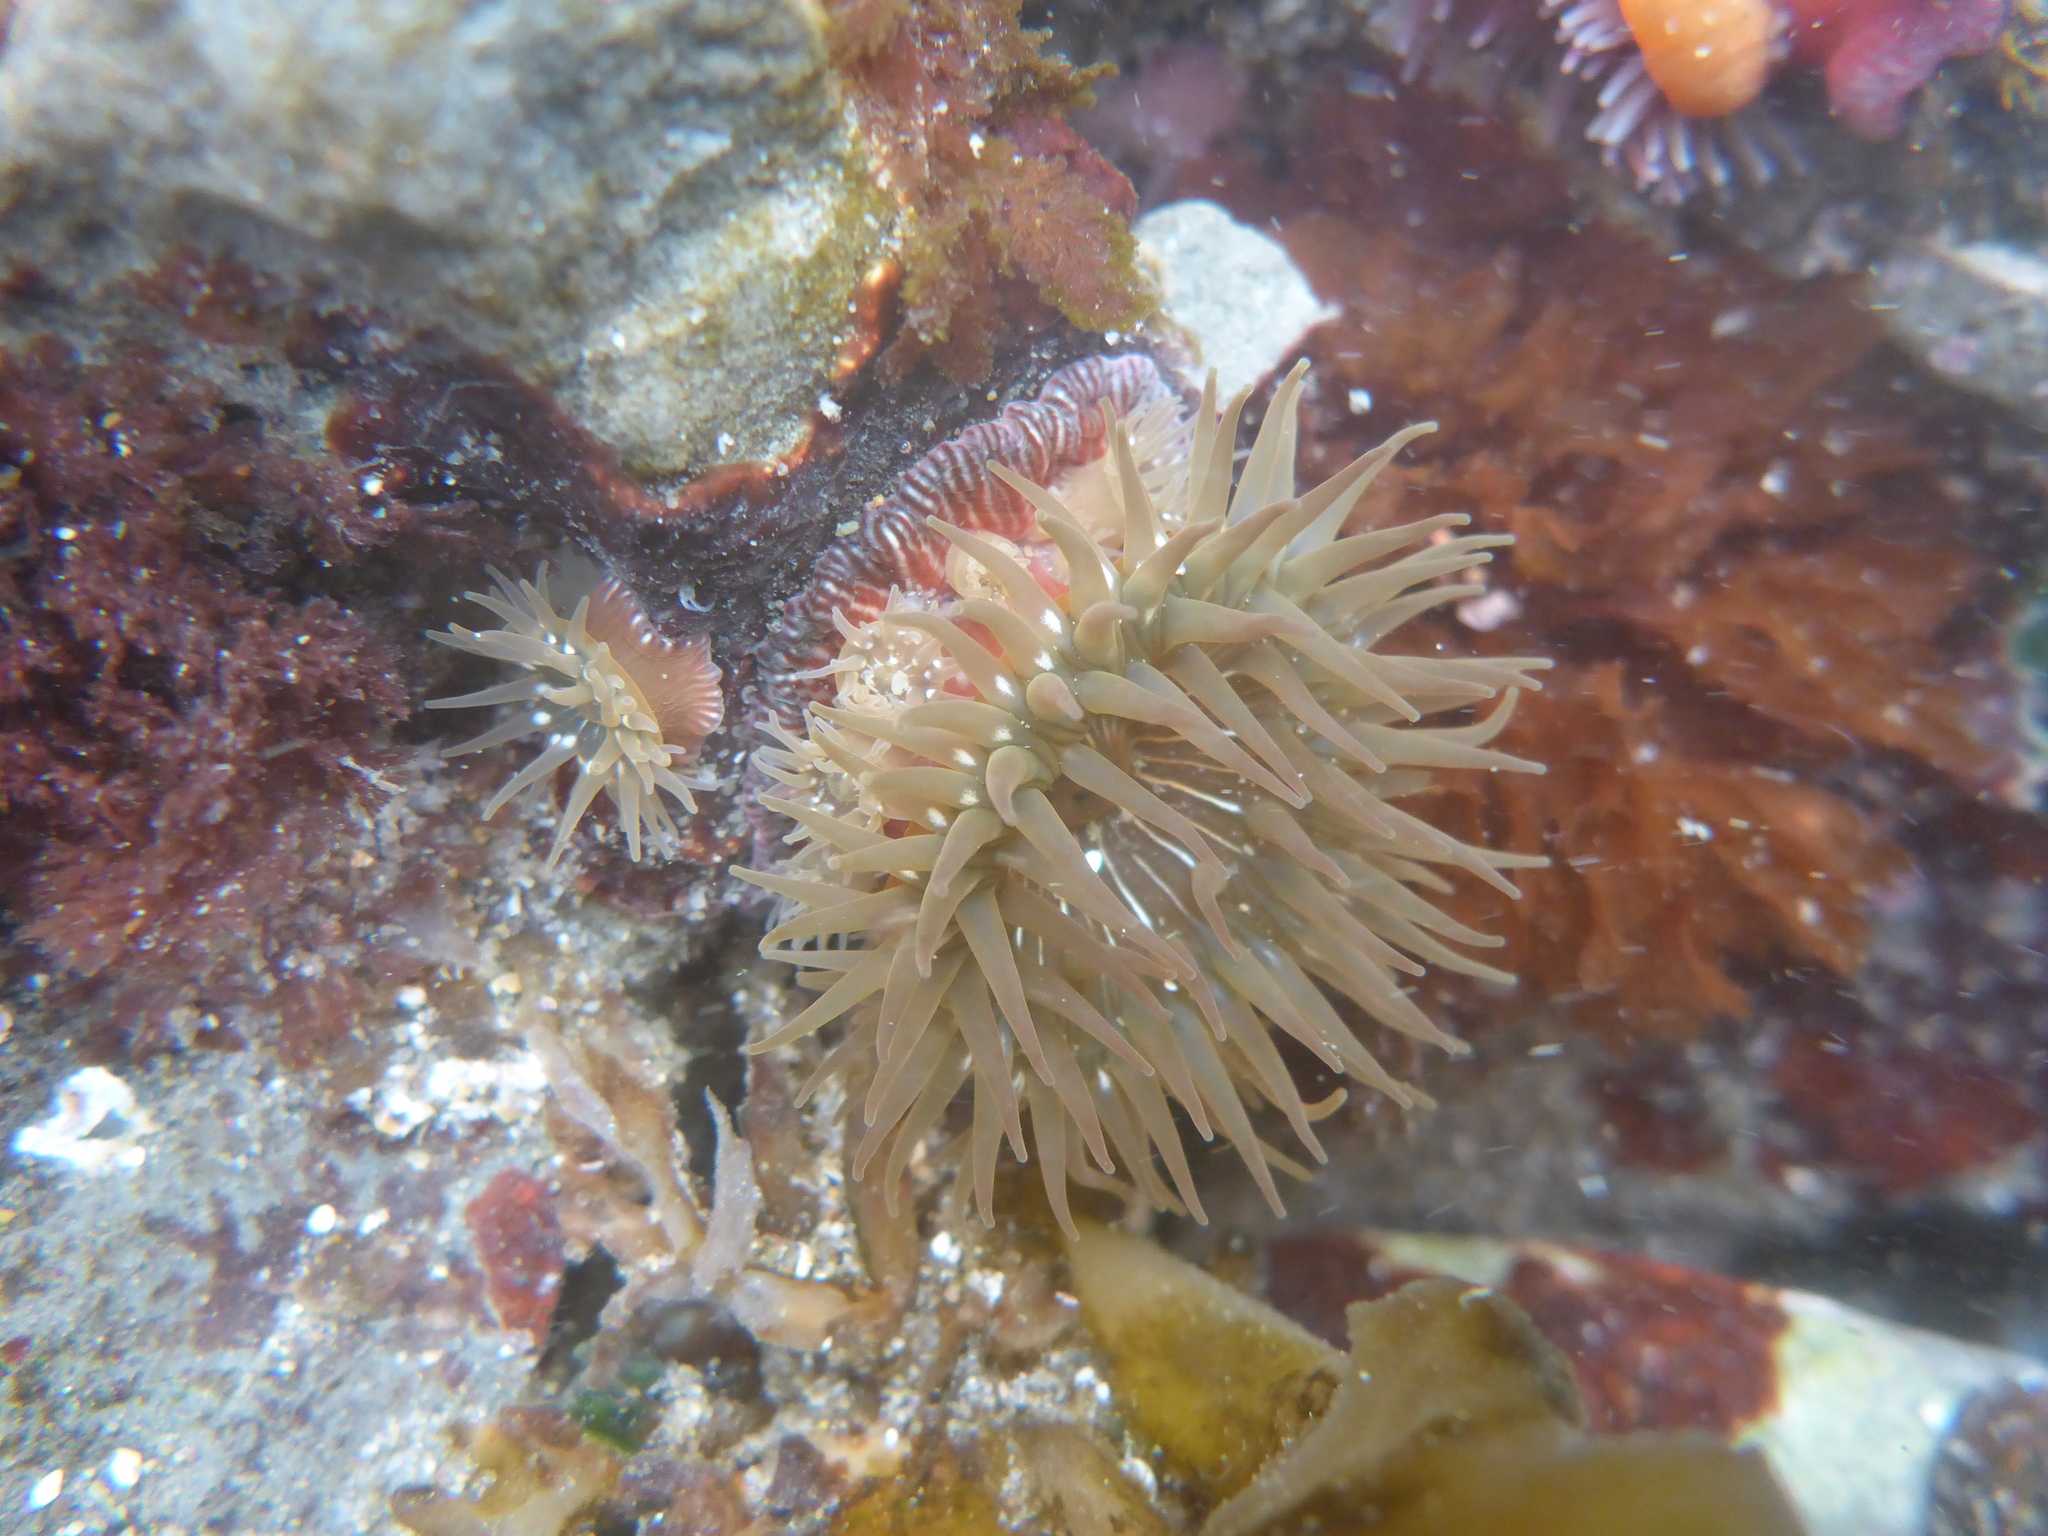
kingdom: Animalia
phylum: Cnidaria
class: Anthozoa
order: Actiniaria
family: Actiniidae
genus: Epiactis
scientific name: Epiactis prolifera
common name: Brooding anemone
